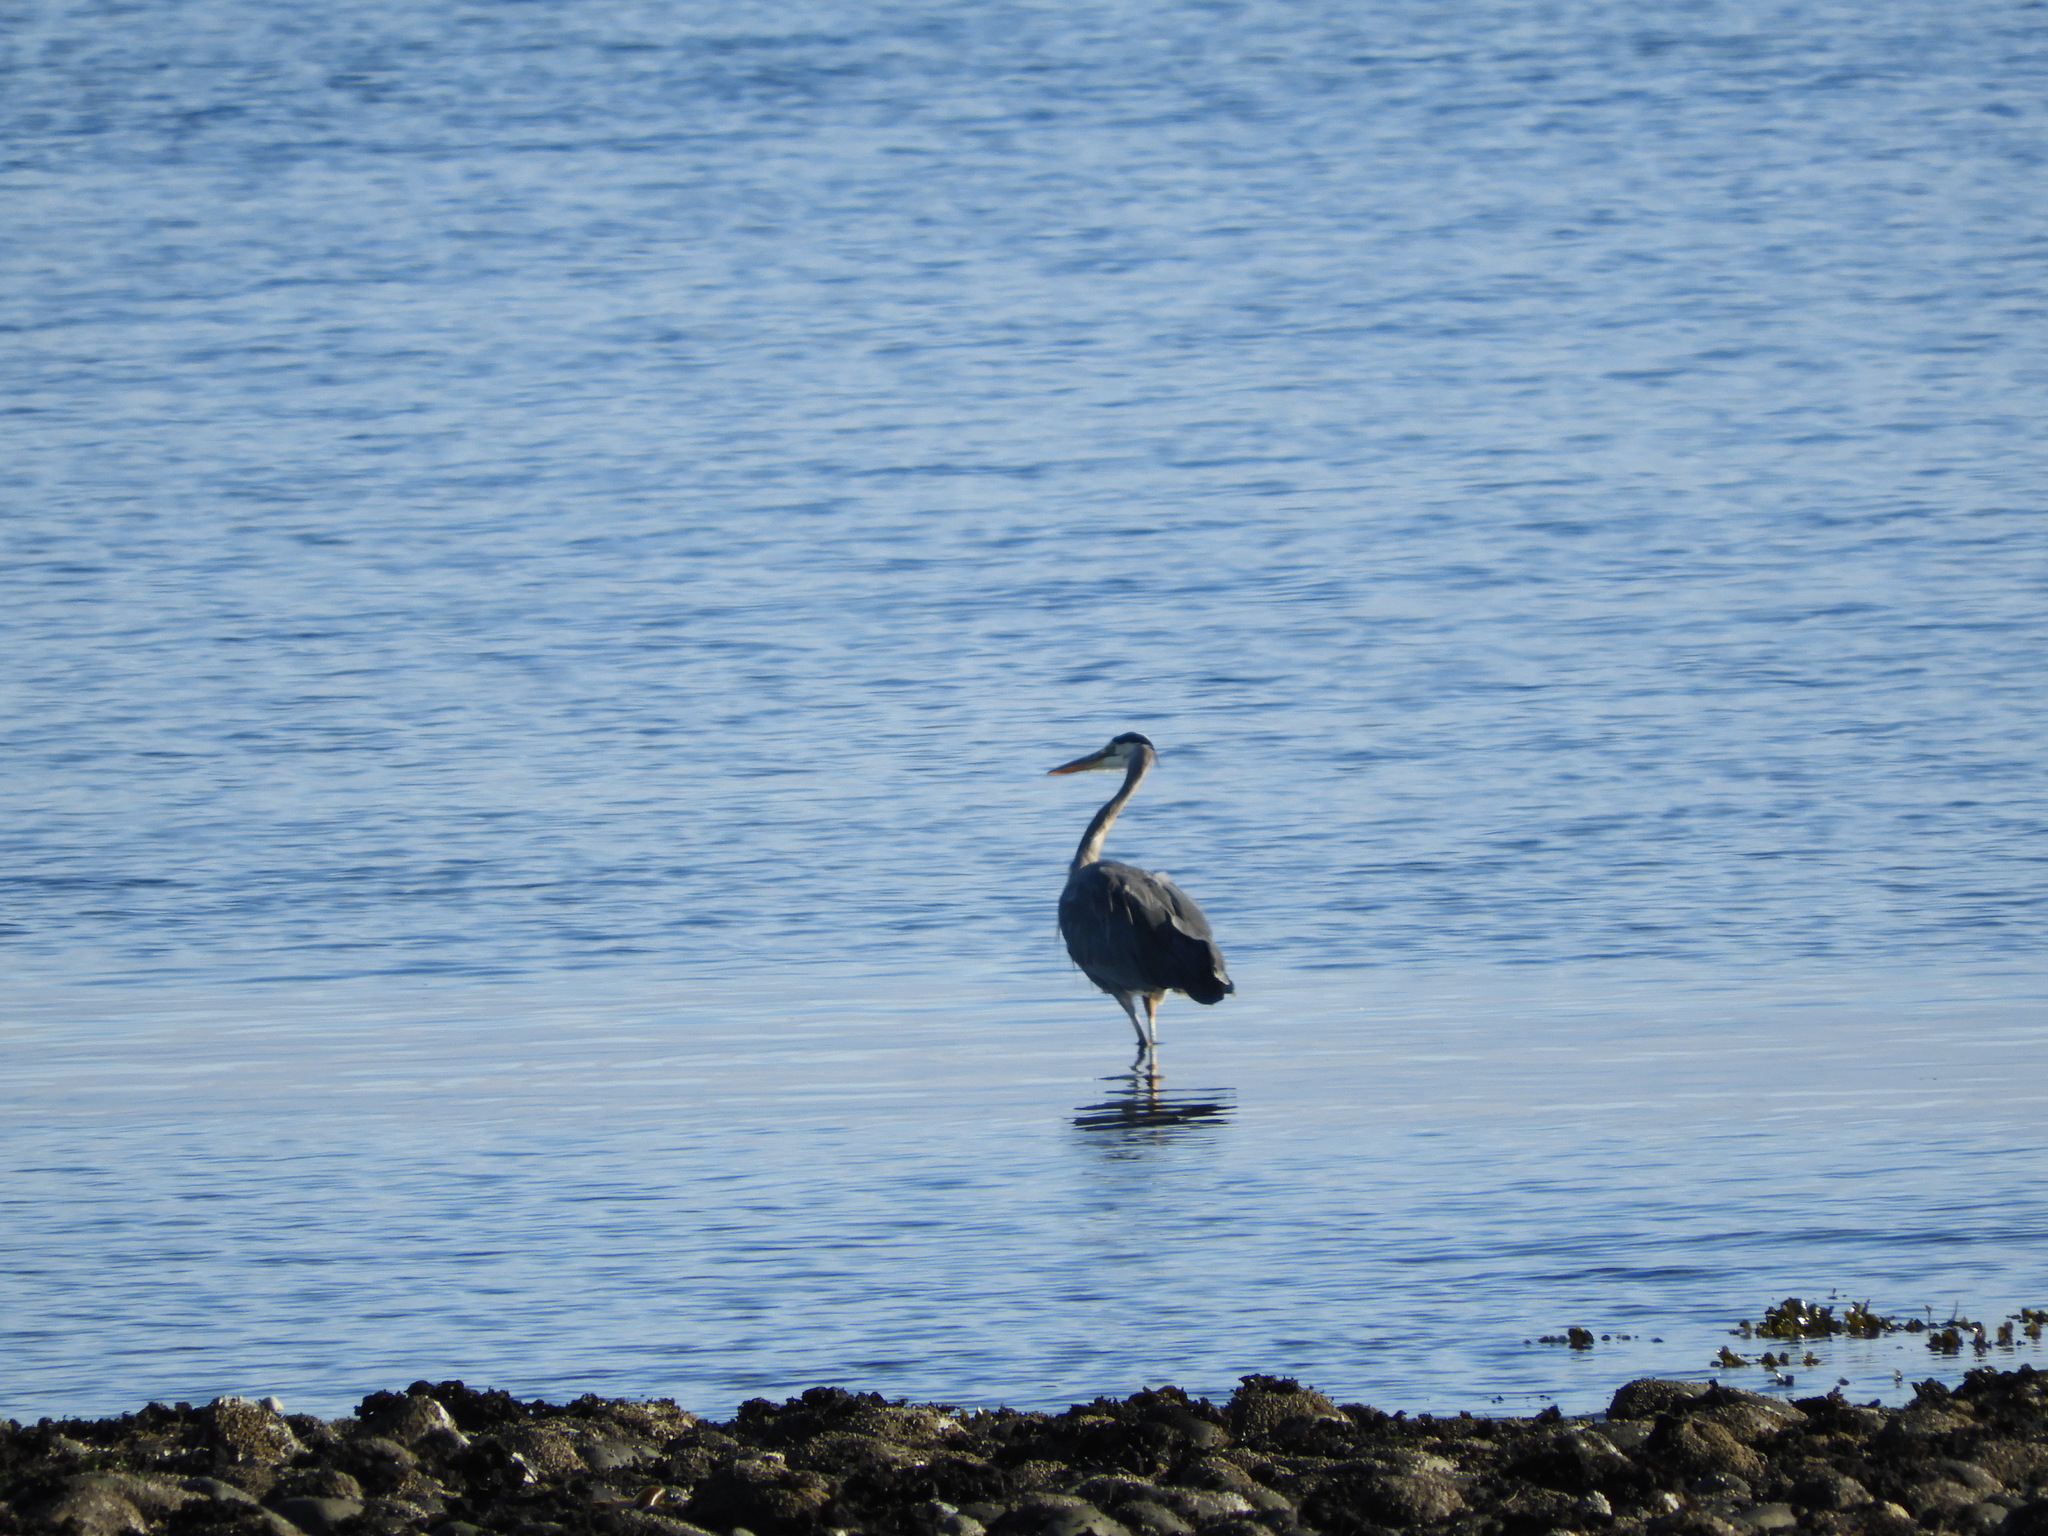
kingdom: Animalia
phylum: Chordata
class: Aves
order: Pelecaniformes
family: Ardeidae
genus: Ardea
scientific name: Ardea herodias
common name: Great blue heron
